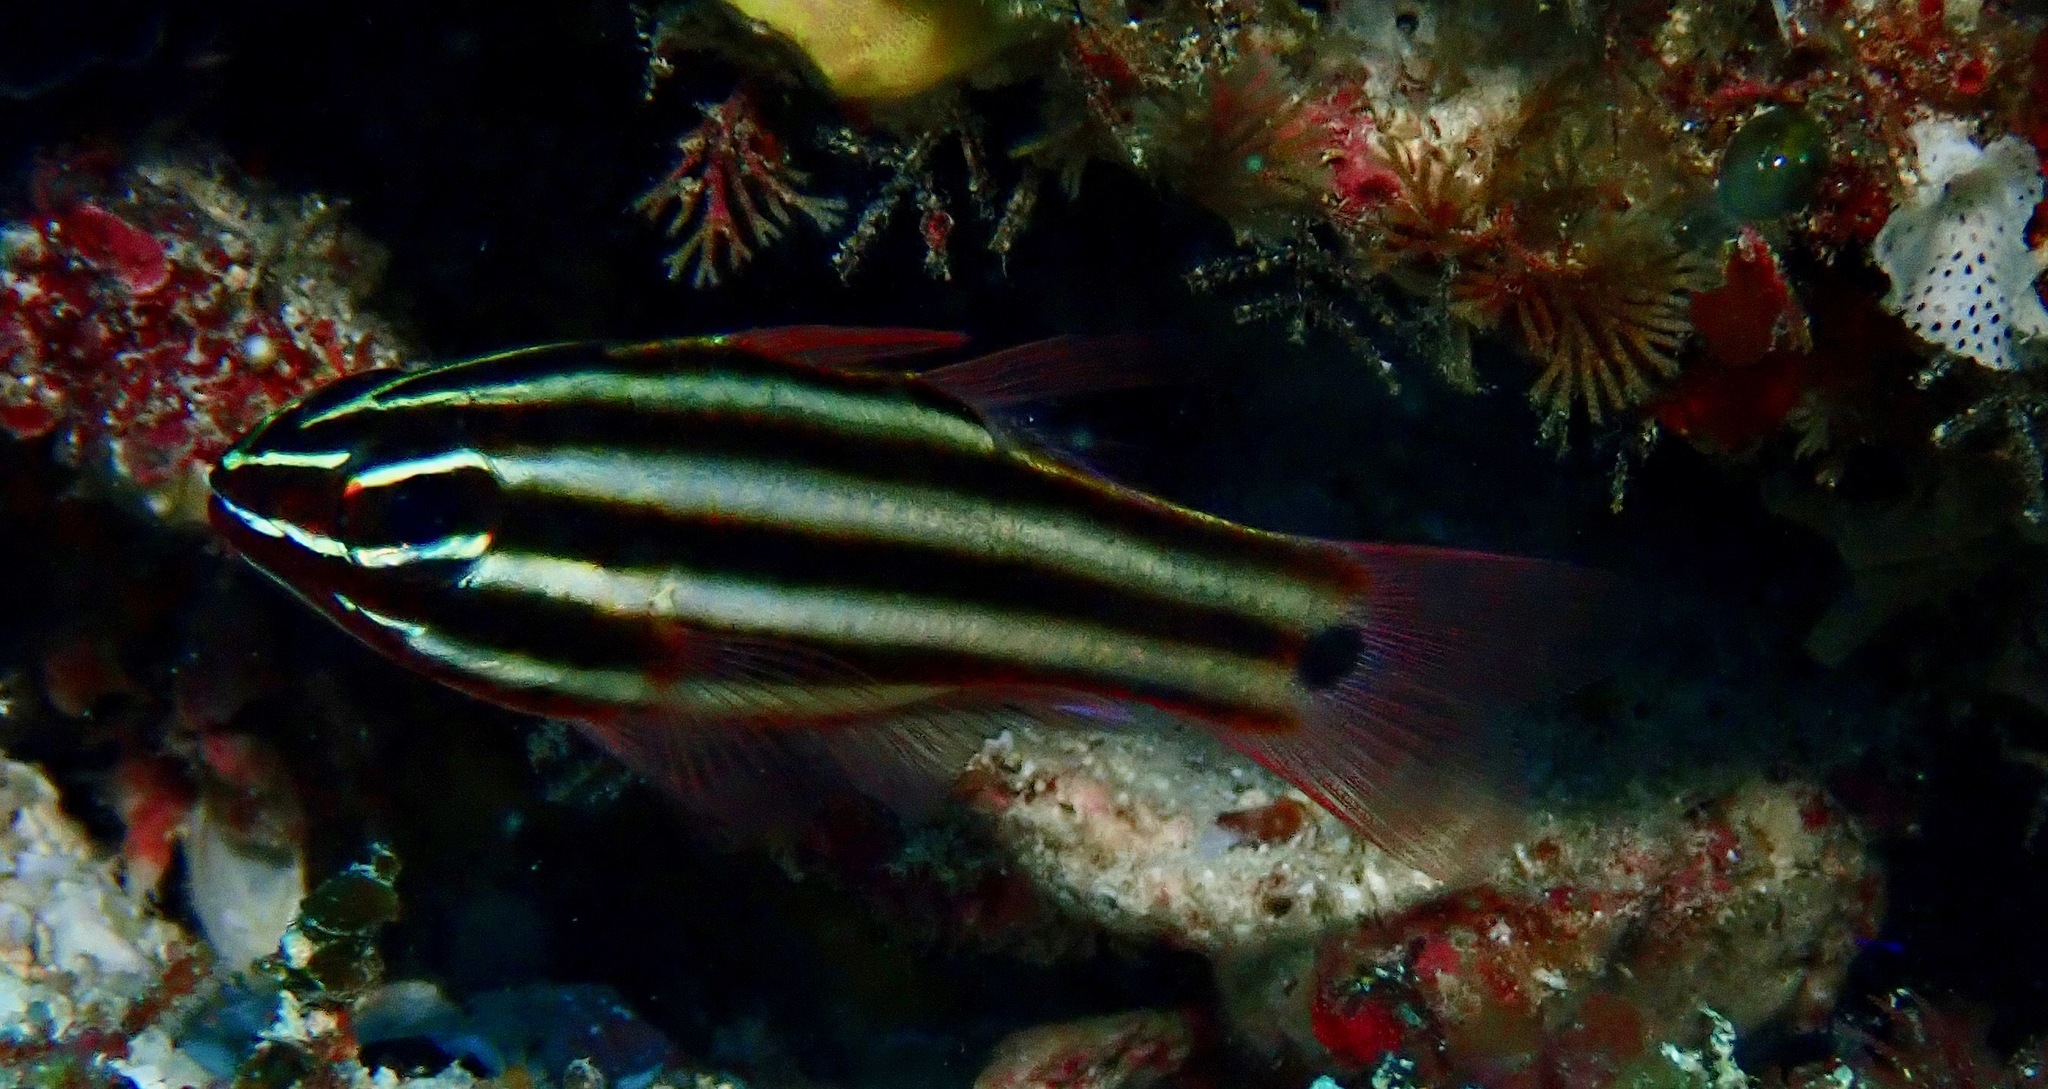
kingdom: Animalia
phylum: Chordata
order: Perciformes
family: Apogonidae
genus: Ostorhinchus
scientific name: Ostorhinchus nigrofasciatus
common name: Blackstripe cardinalfish
